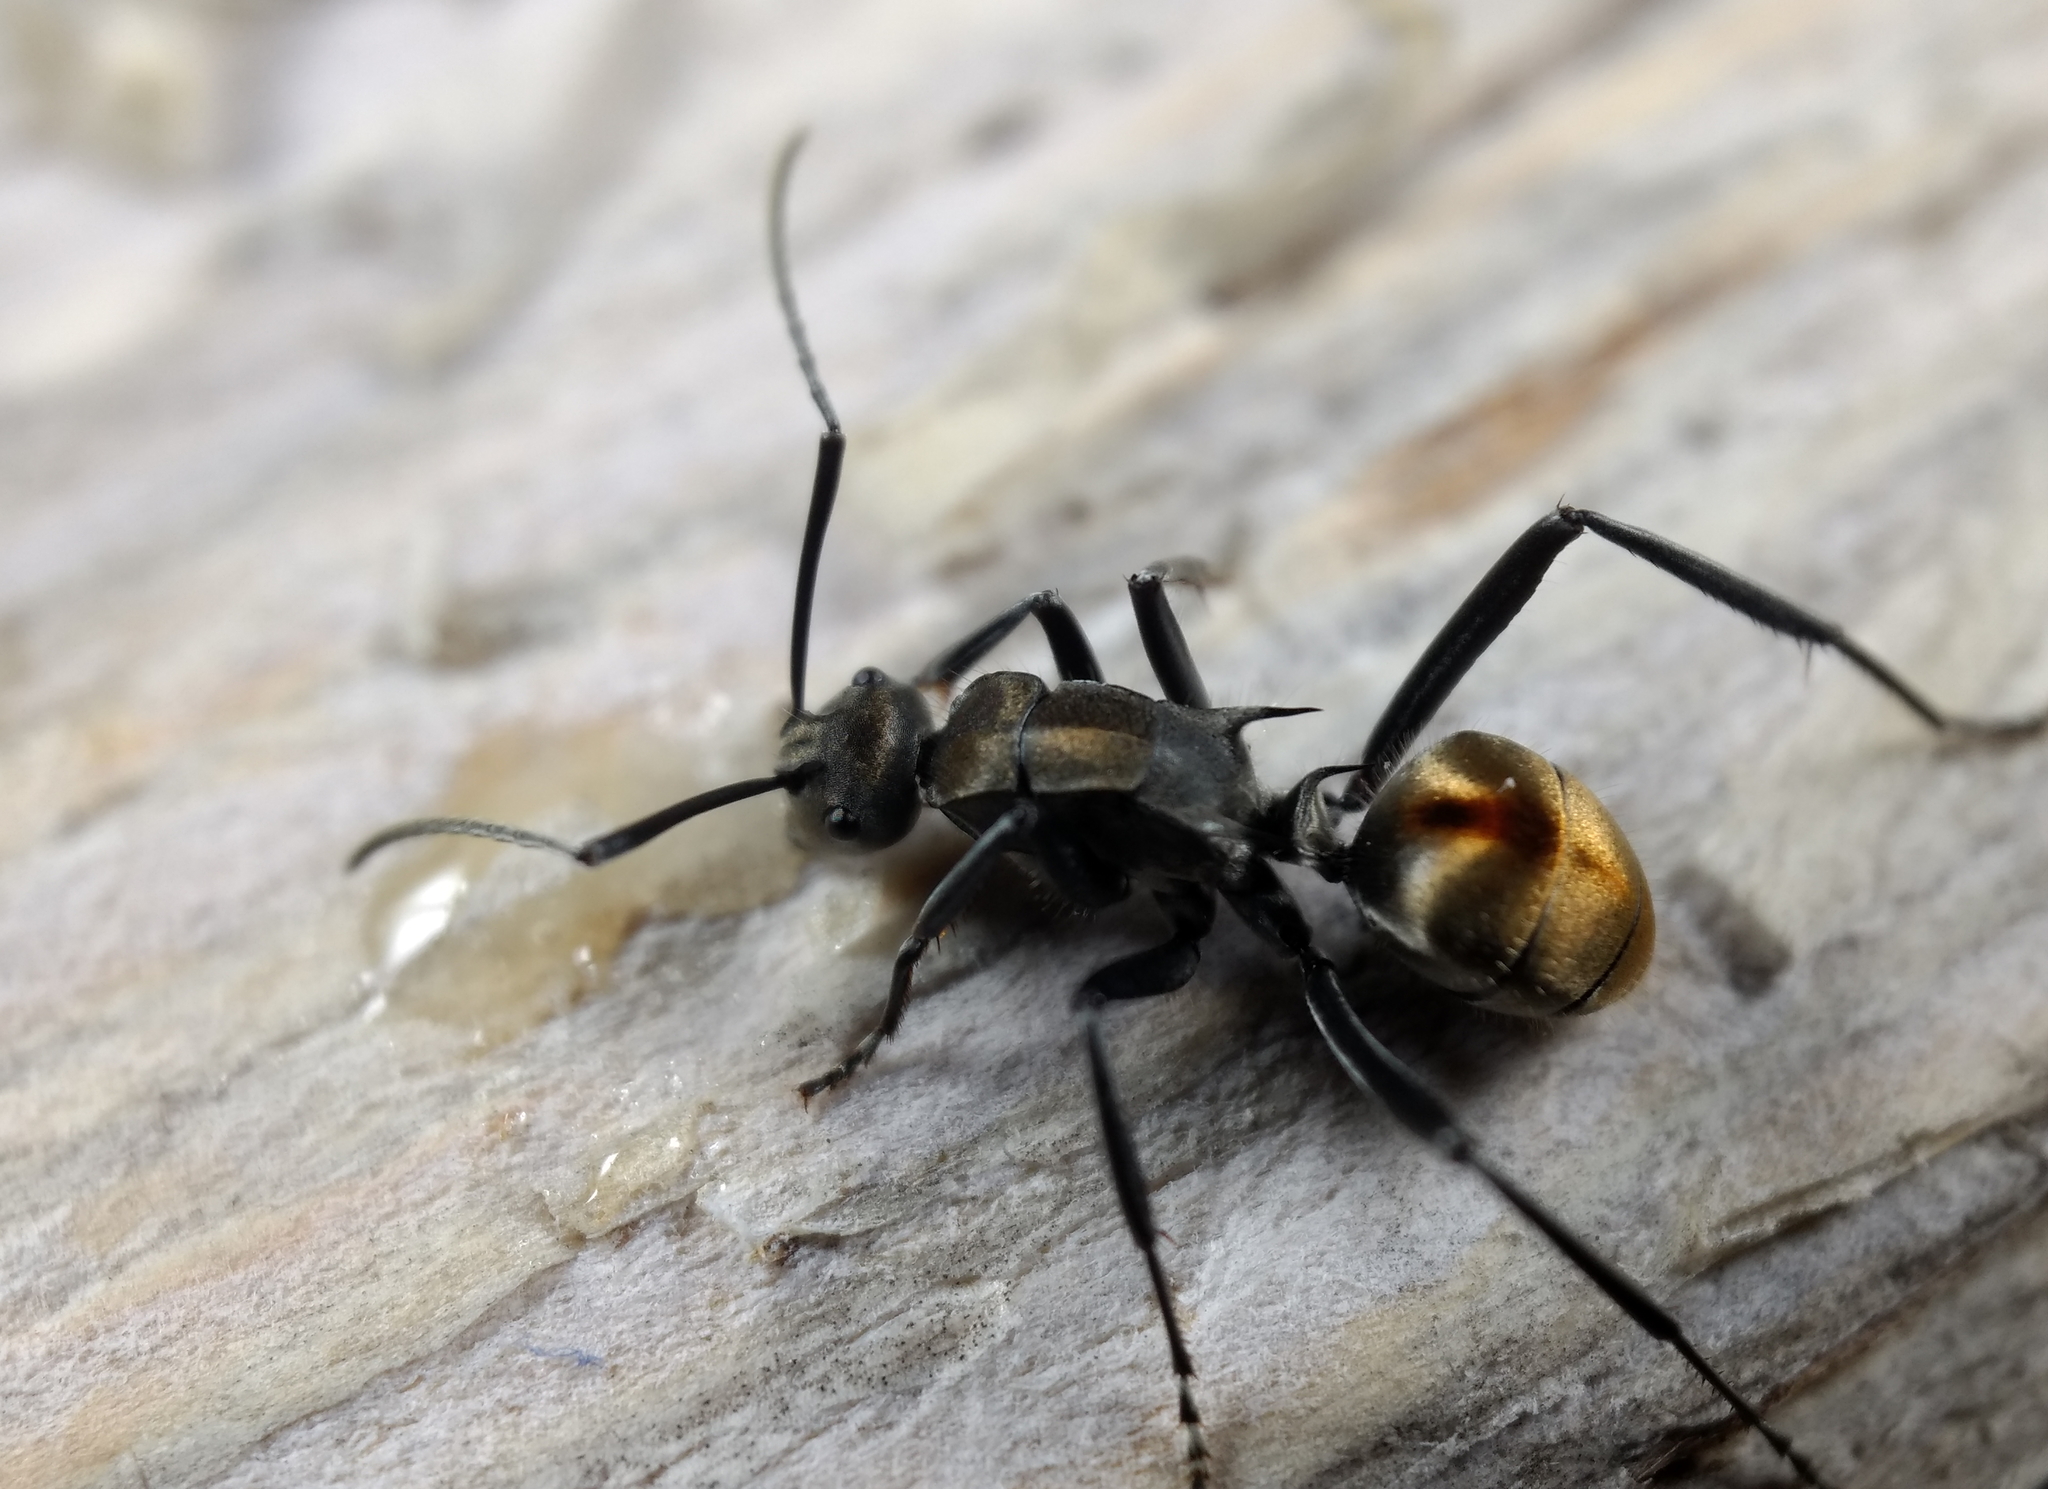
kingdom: Animalia
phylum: Arthropoda
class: Insecta
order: Hymenoptera
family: Formicidae
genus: Polyrhachis
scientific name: Polyrhachis
